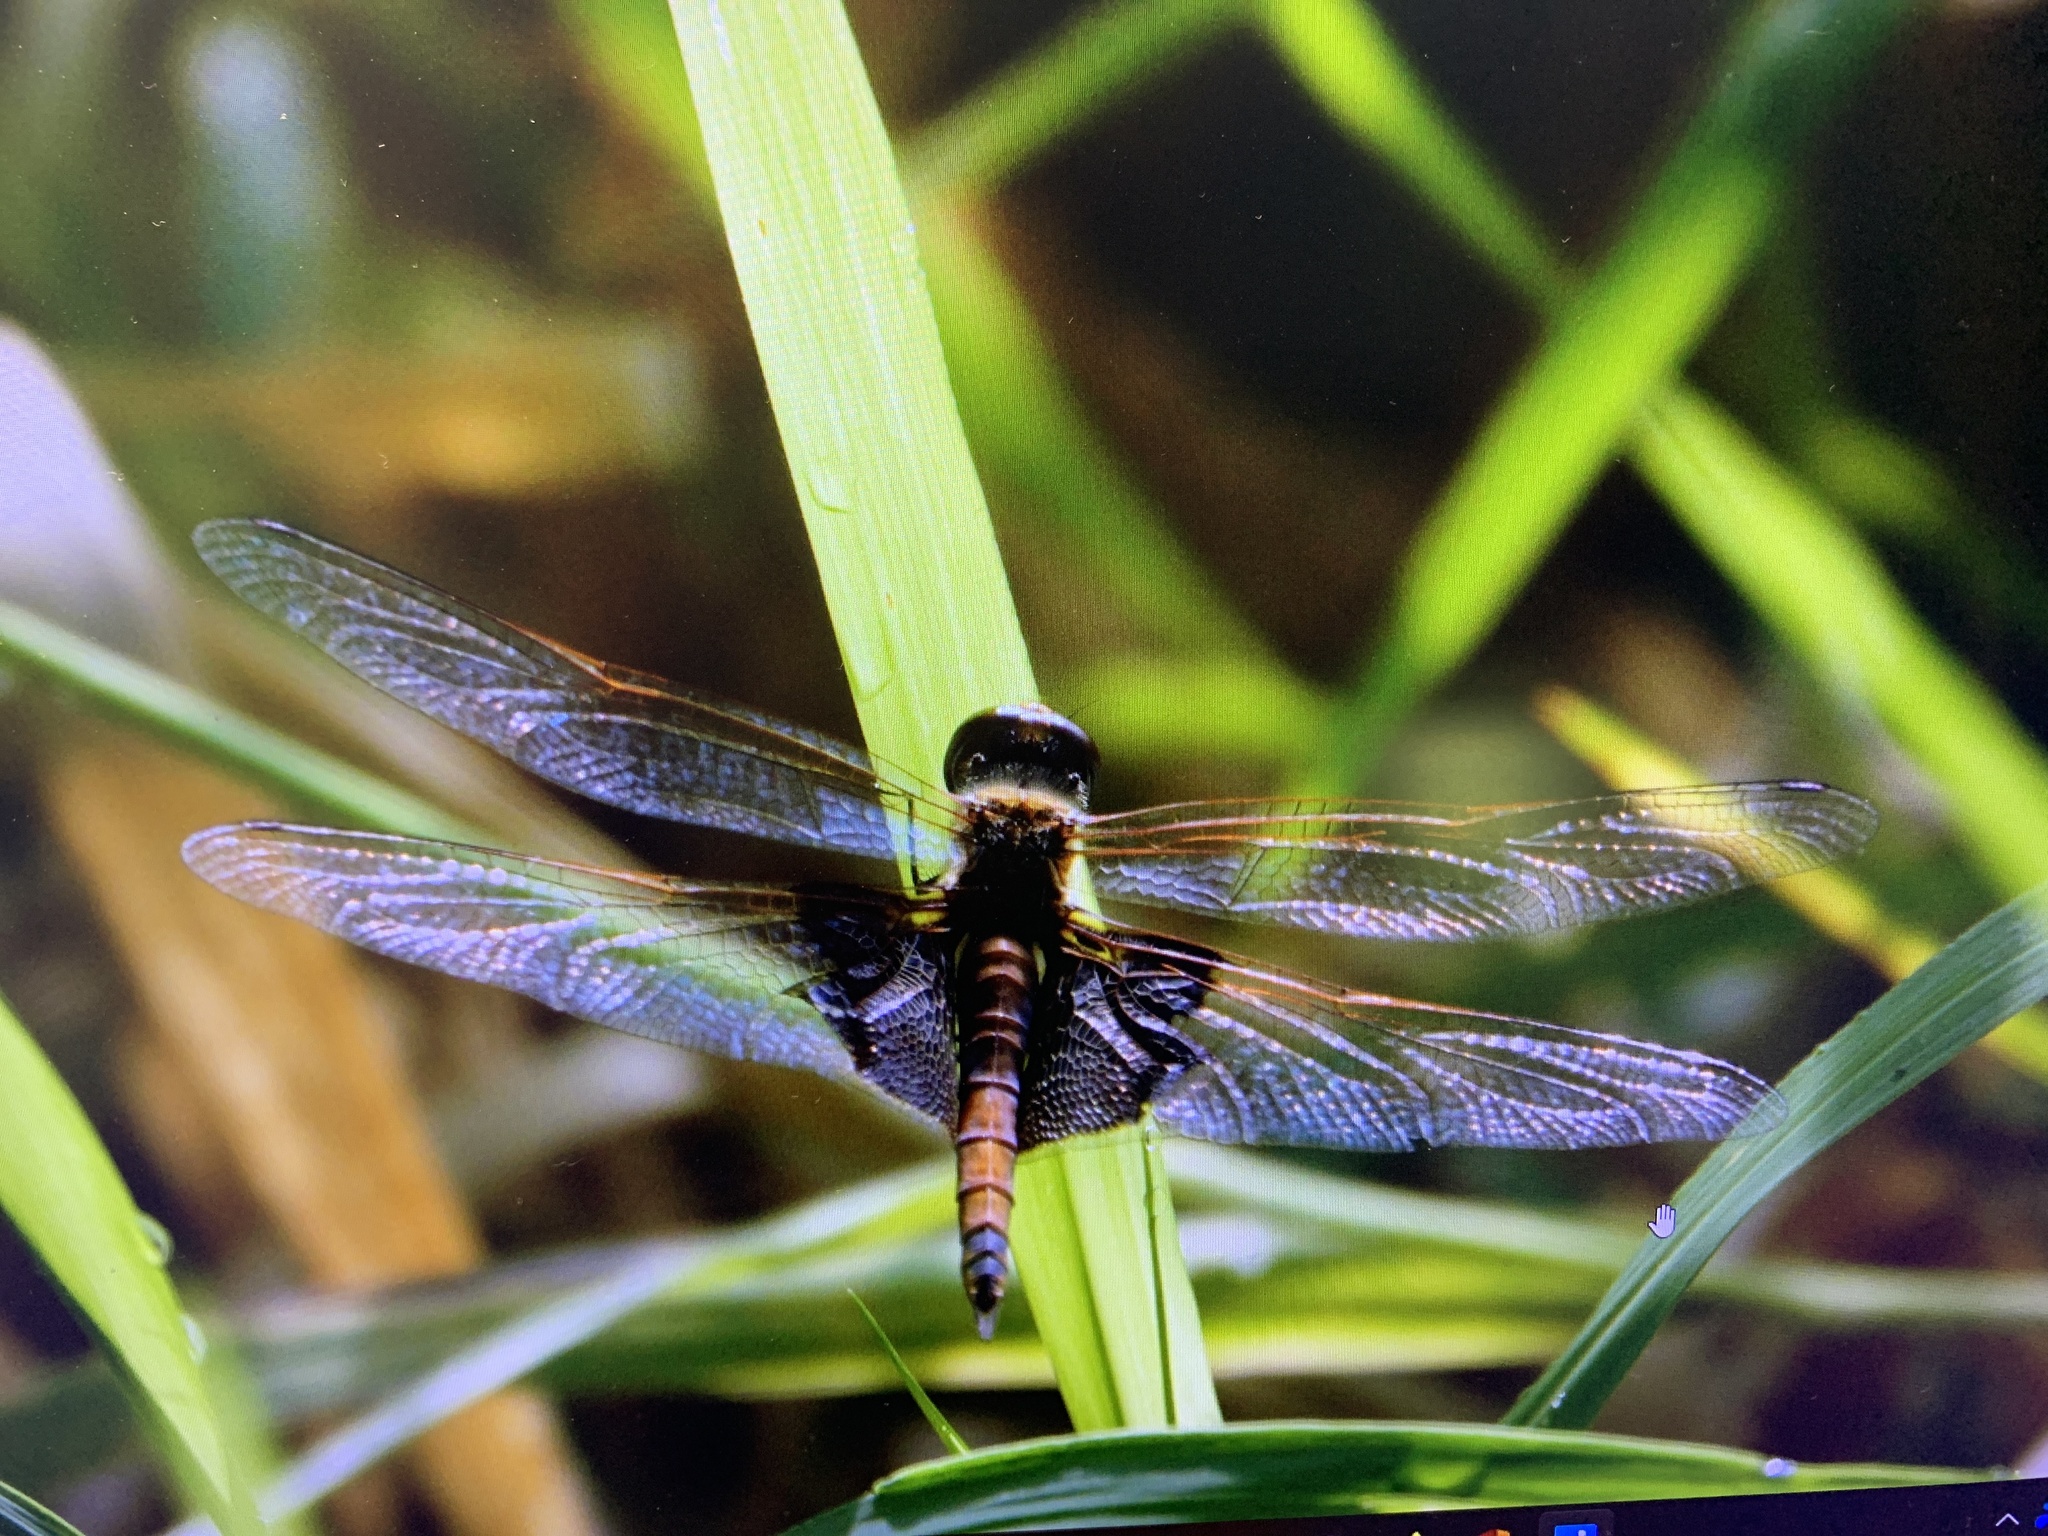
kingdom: Animalia
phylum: Arthropoda
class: Insecta
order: Odonata
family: Libellulidae
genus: Tramea
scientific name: Tramea carolina
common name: Carolina saddlebags
